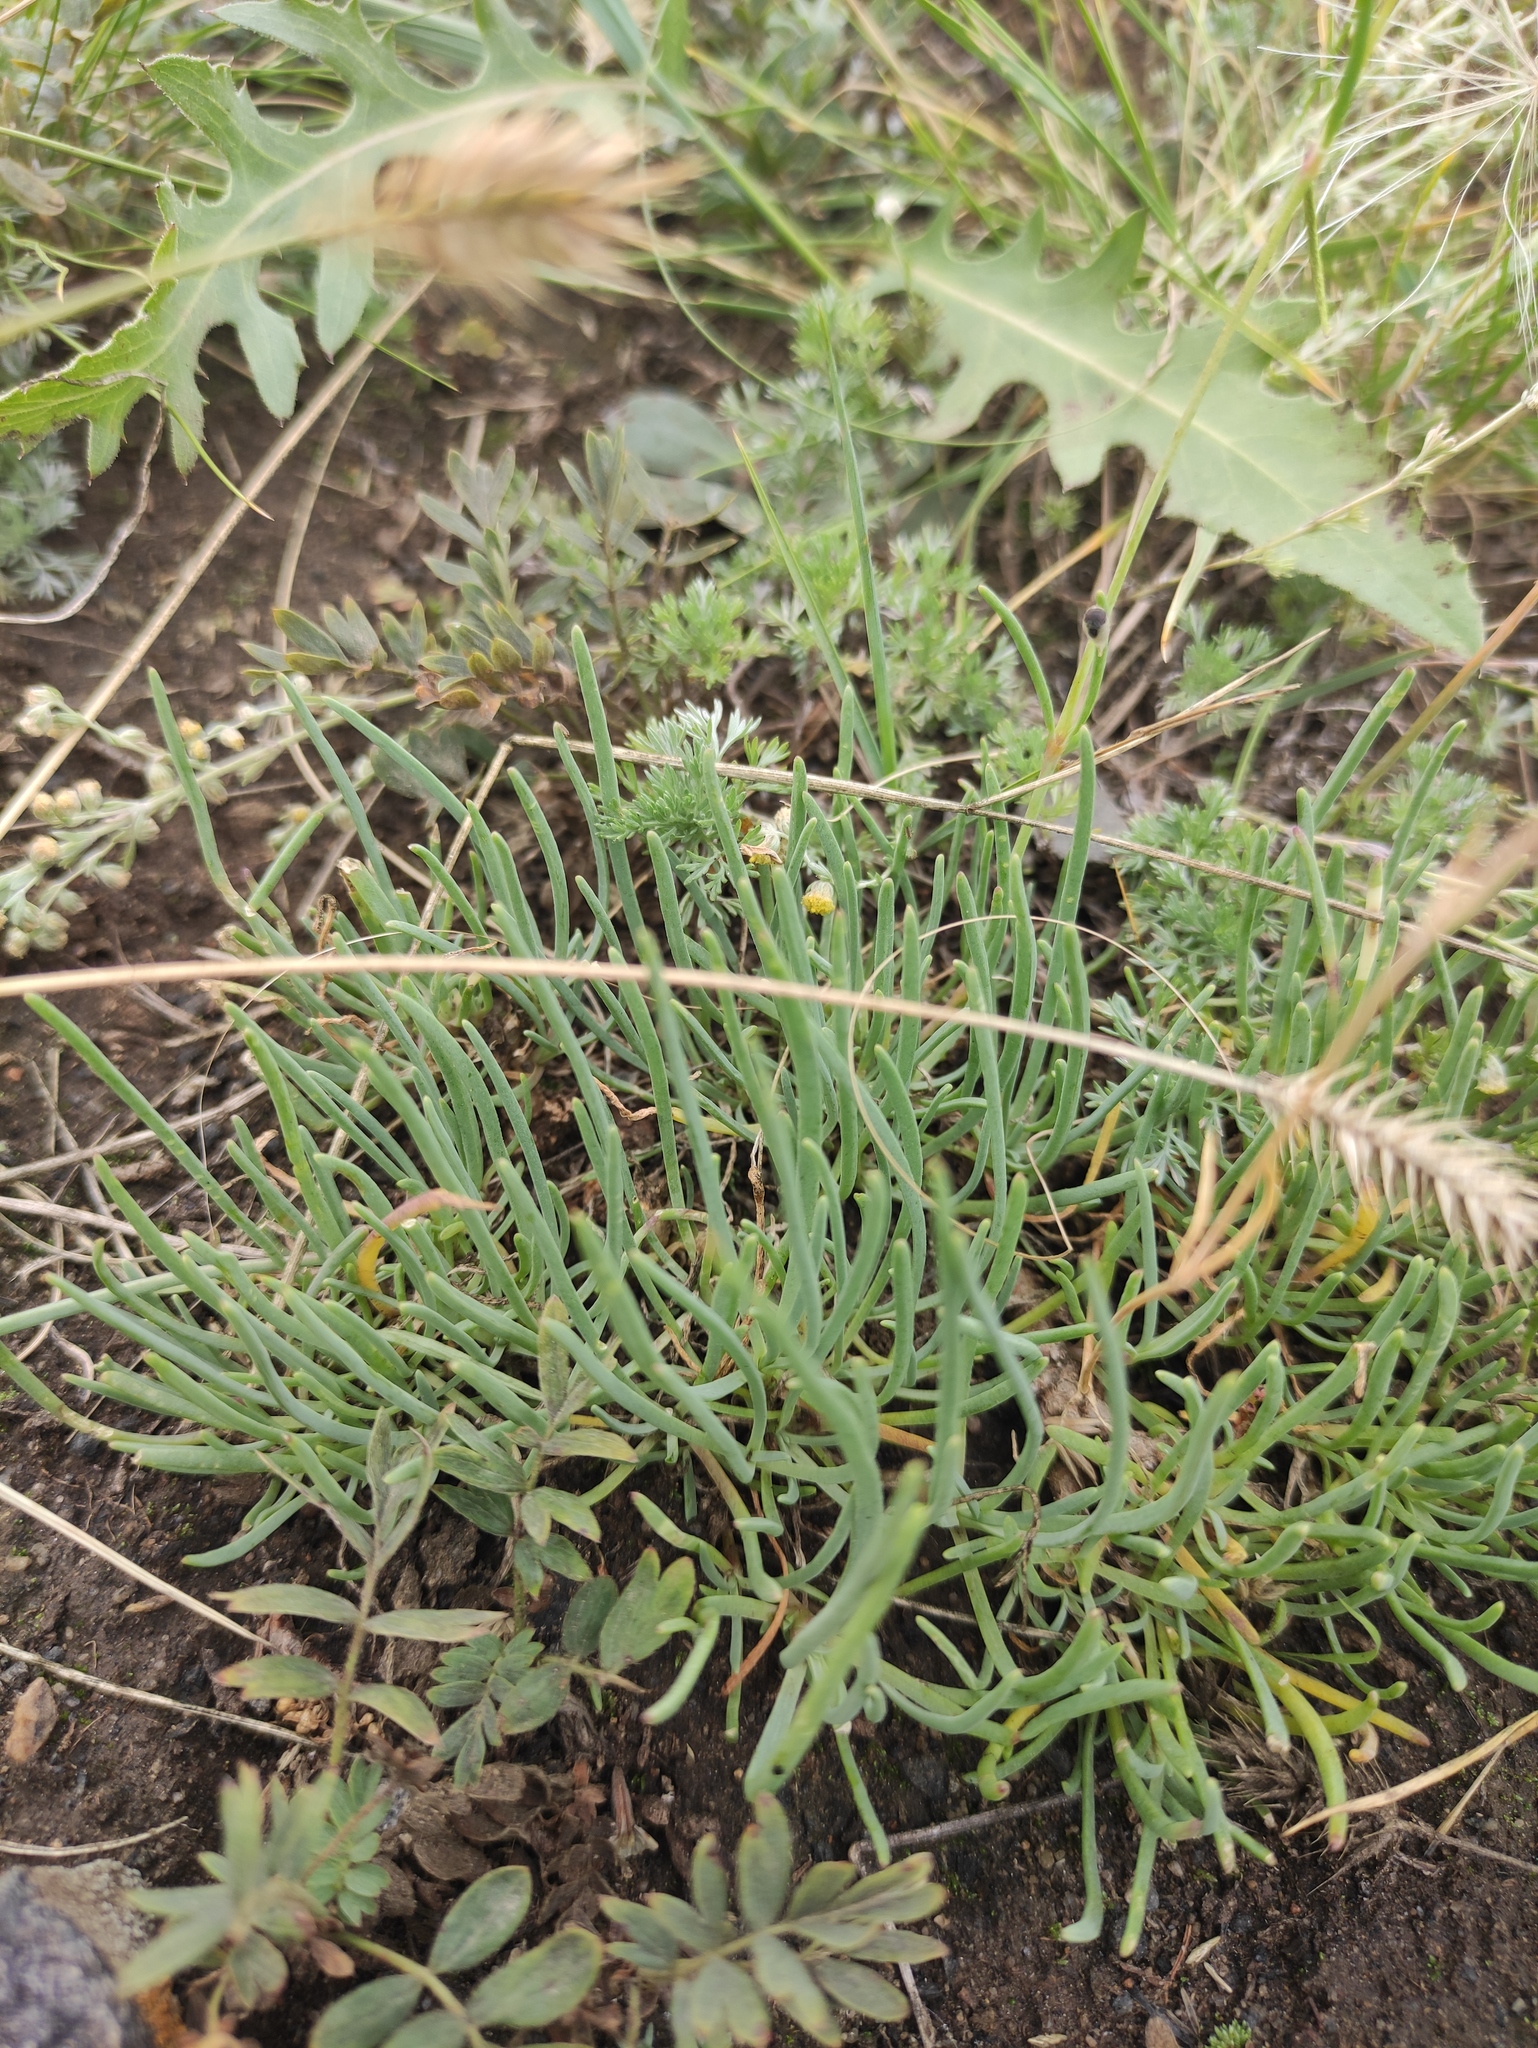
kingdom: Plantae
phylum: Tracheophyta
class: Magnoliopsida
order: Caryophyllales
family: Caryophyllaceae
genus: Gypsophila
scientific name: Gypsophila patrinii
